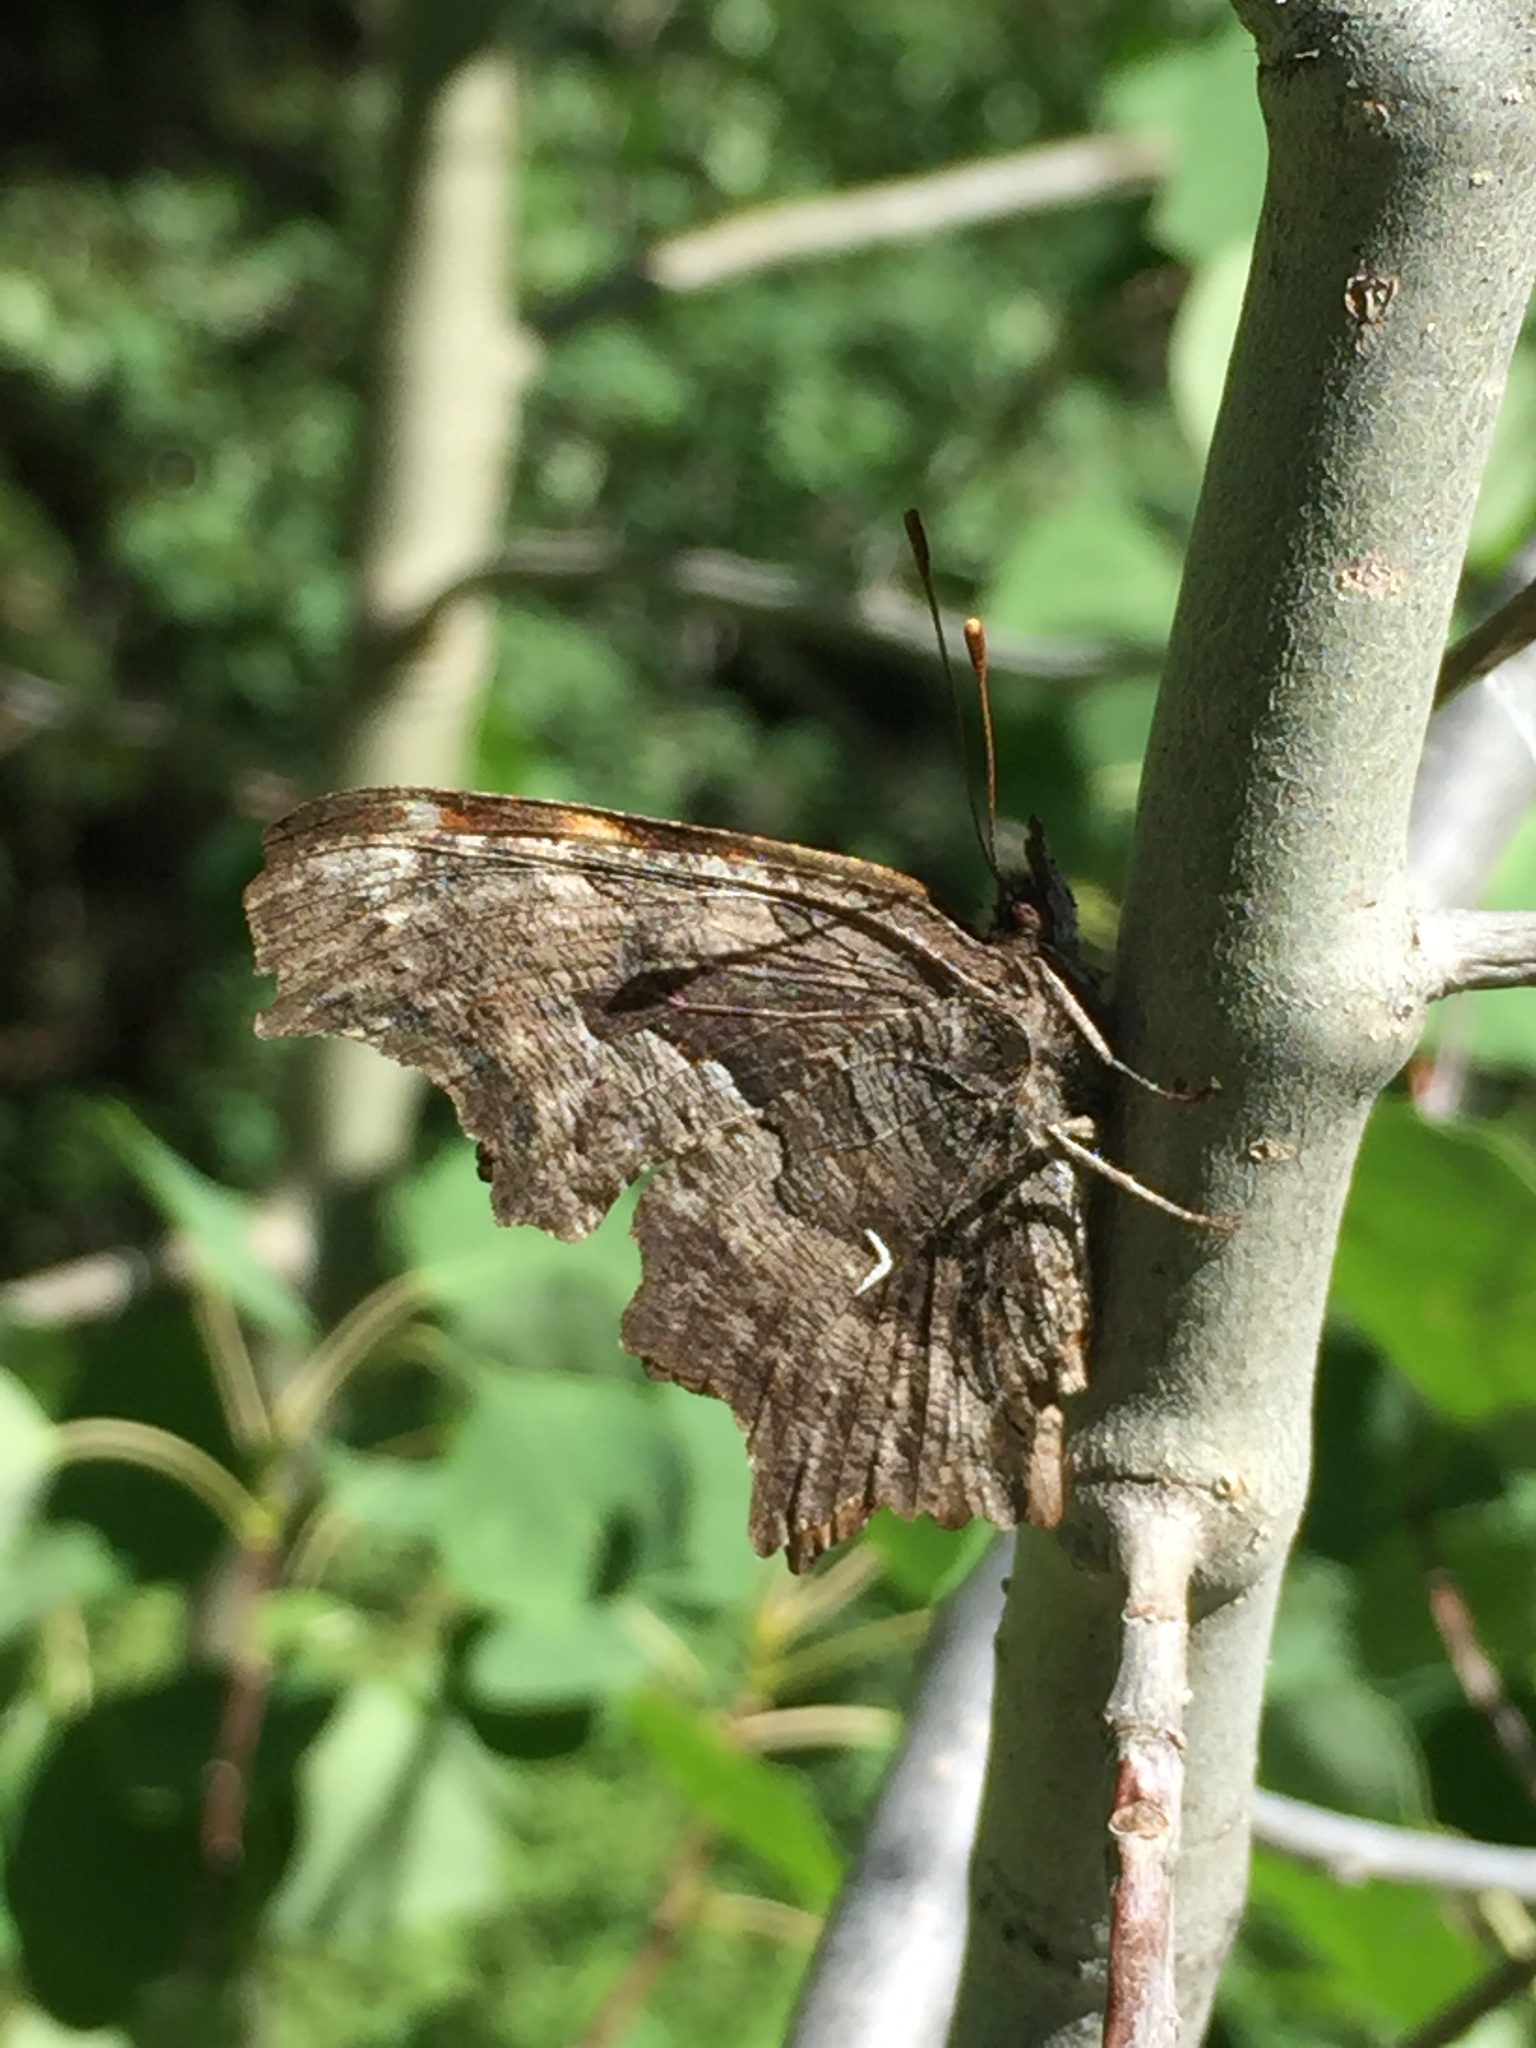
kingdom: Animalia
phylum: Arthropoda
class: Insecta
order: Lepidoptera
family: Nymphalidae
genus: Polygonia
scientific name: Polygonia gracilis
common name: Hoary comma
